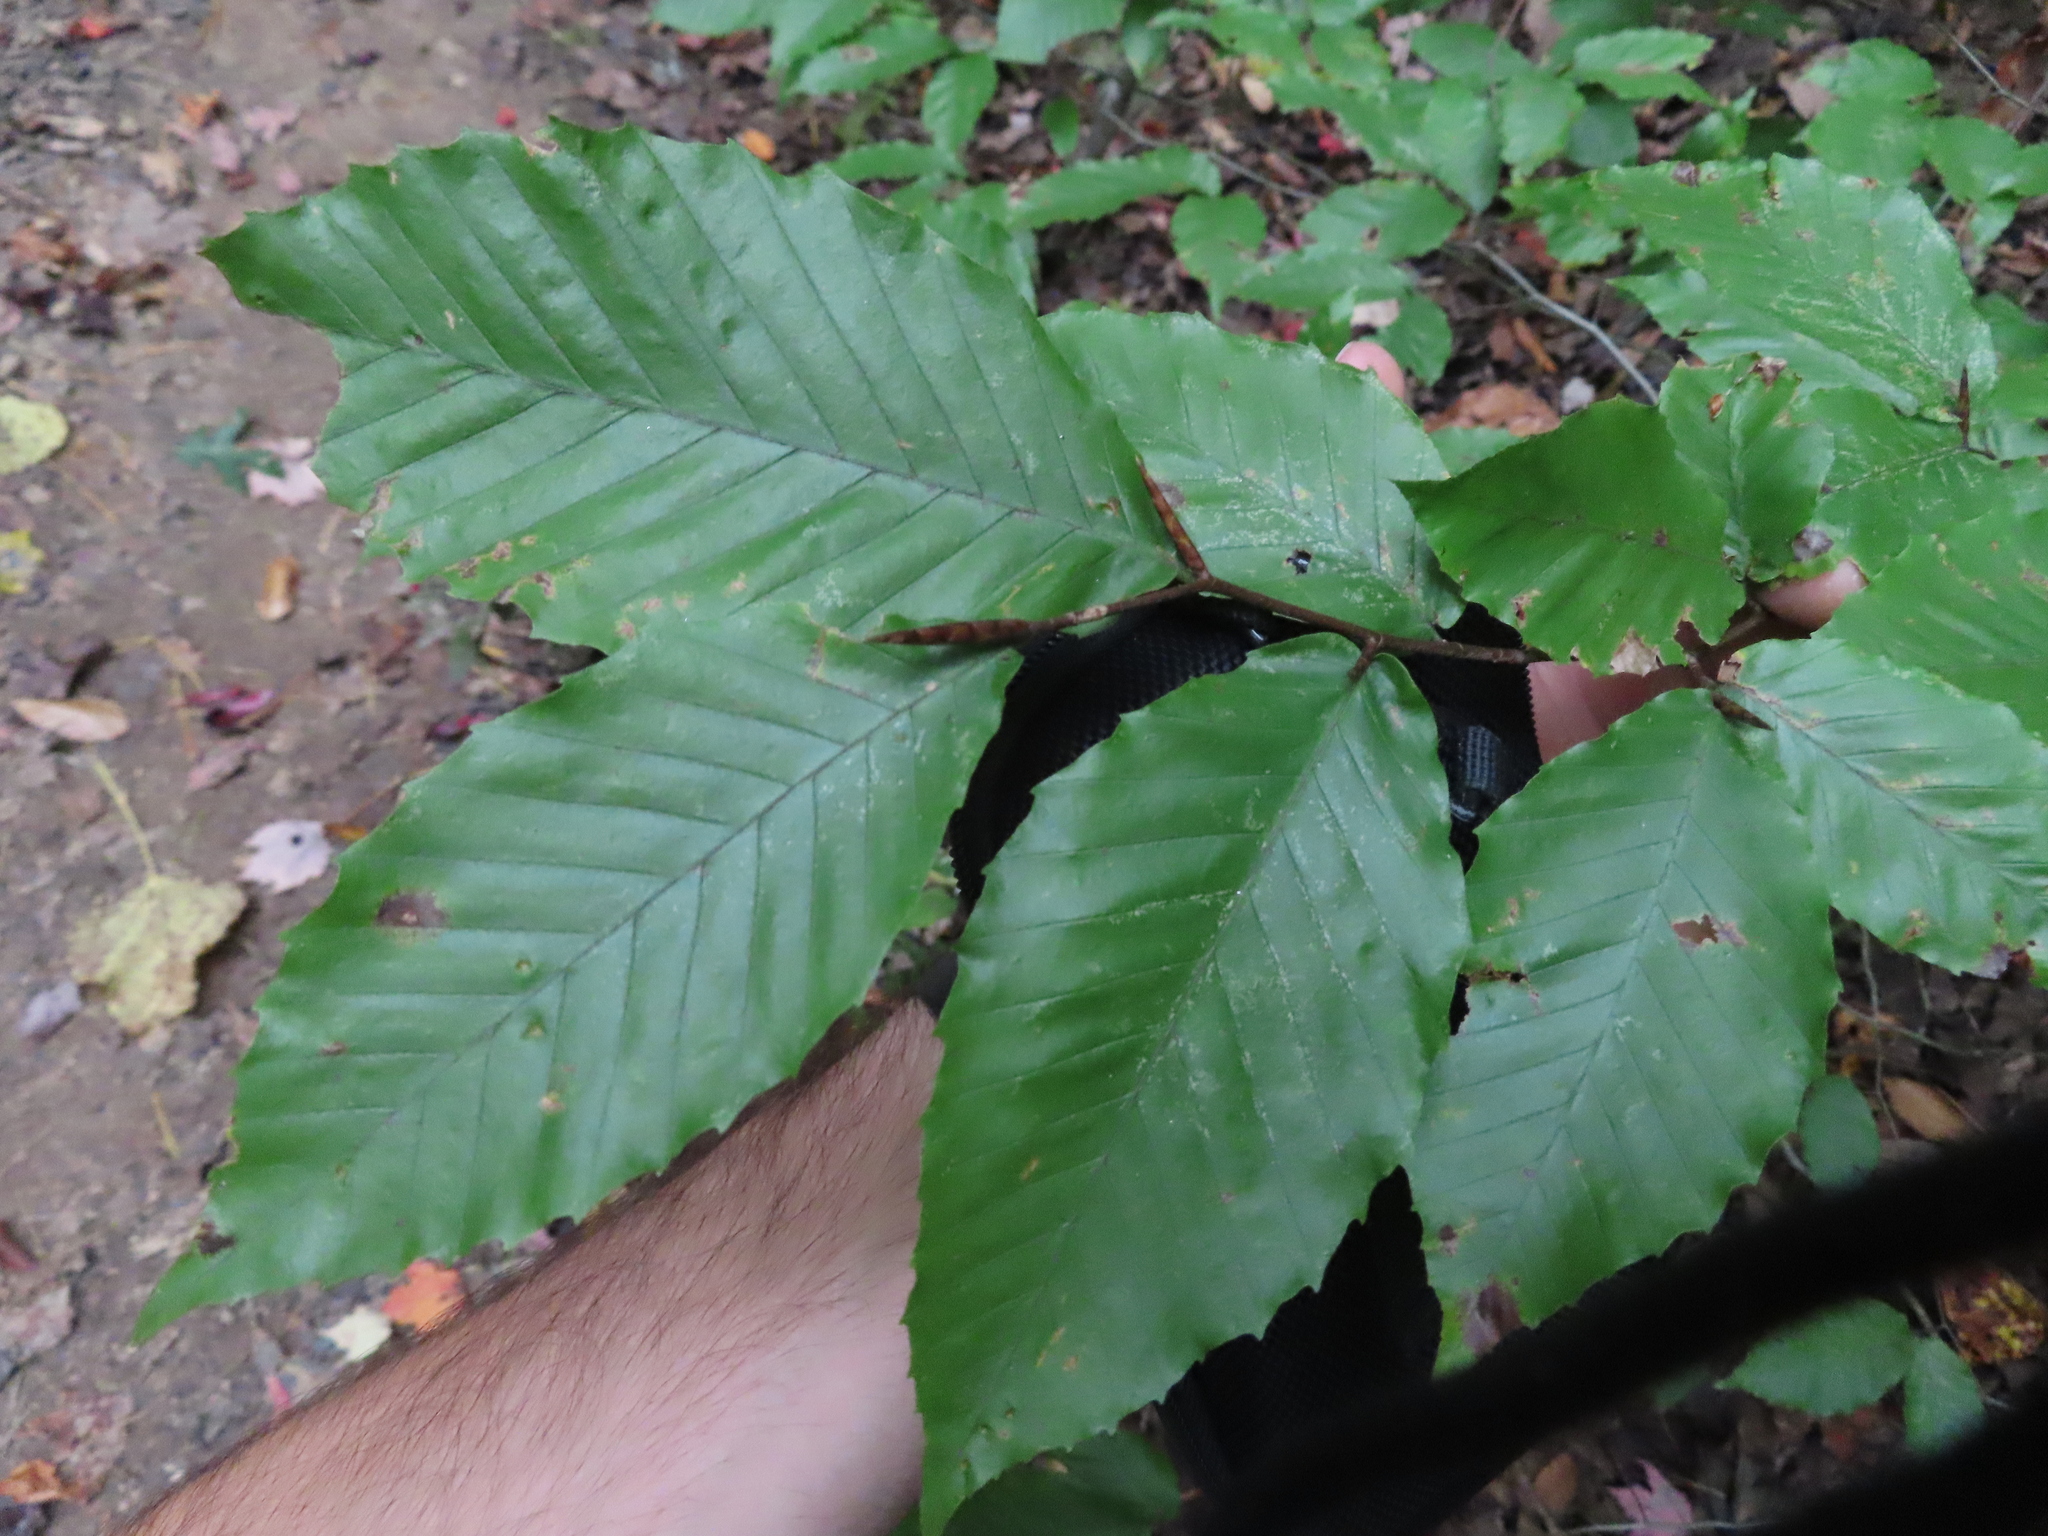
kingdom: Plantae
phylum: Tracheophyta
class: Magnoliopsida
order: Fagales
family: Fagaceae
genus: Fagus
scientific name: Fagus grandifolia
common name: American beech
